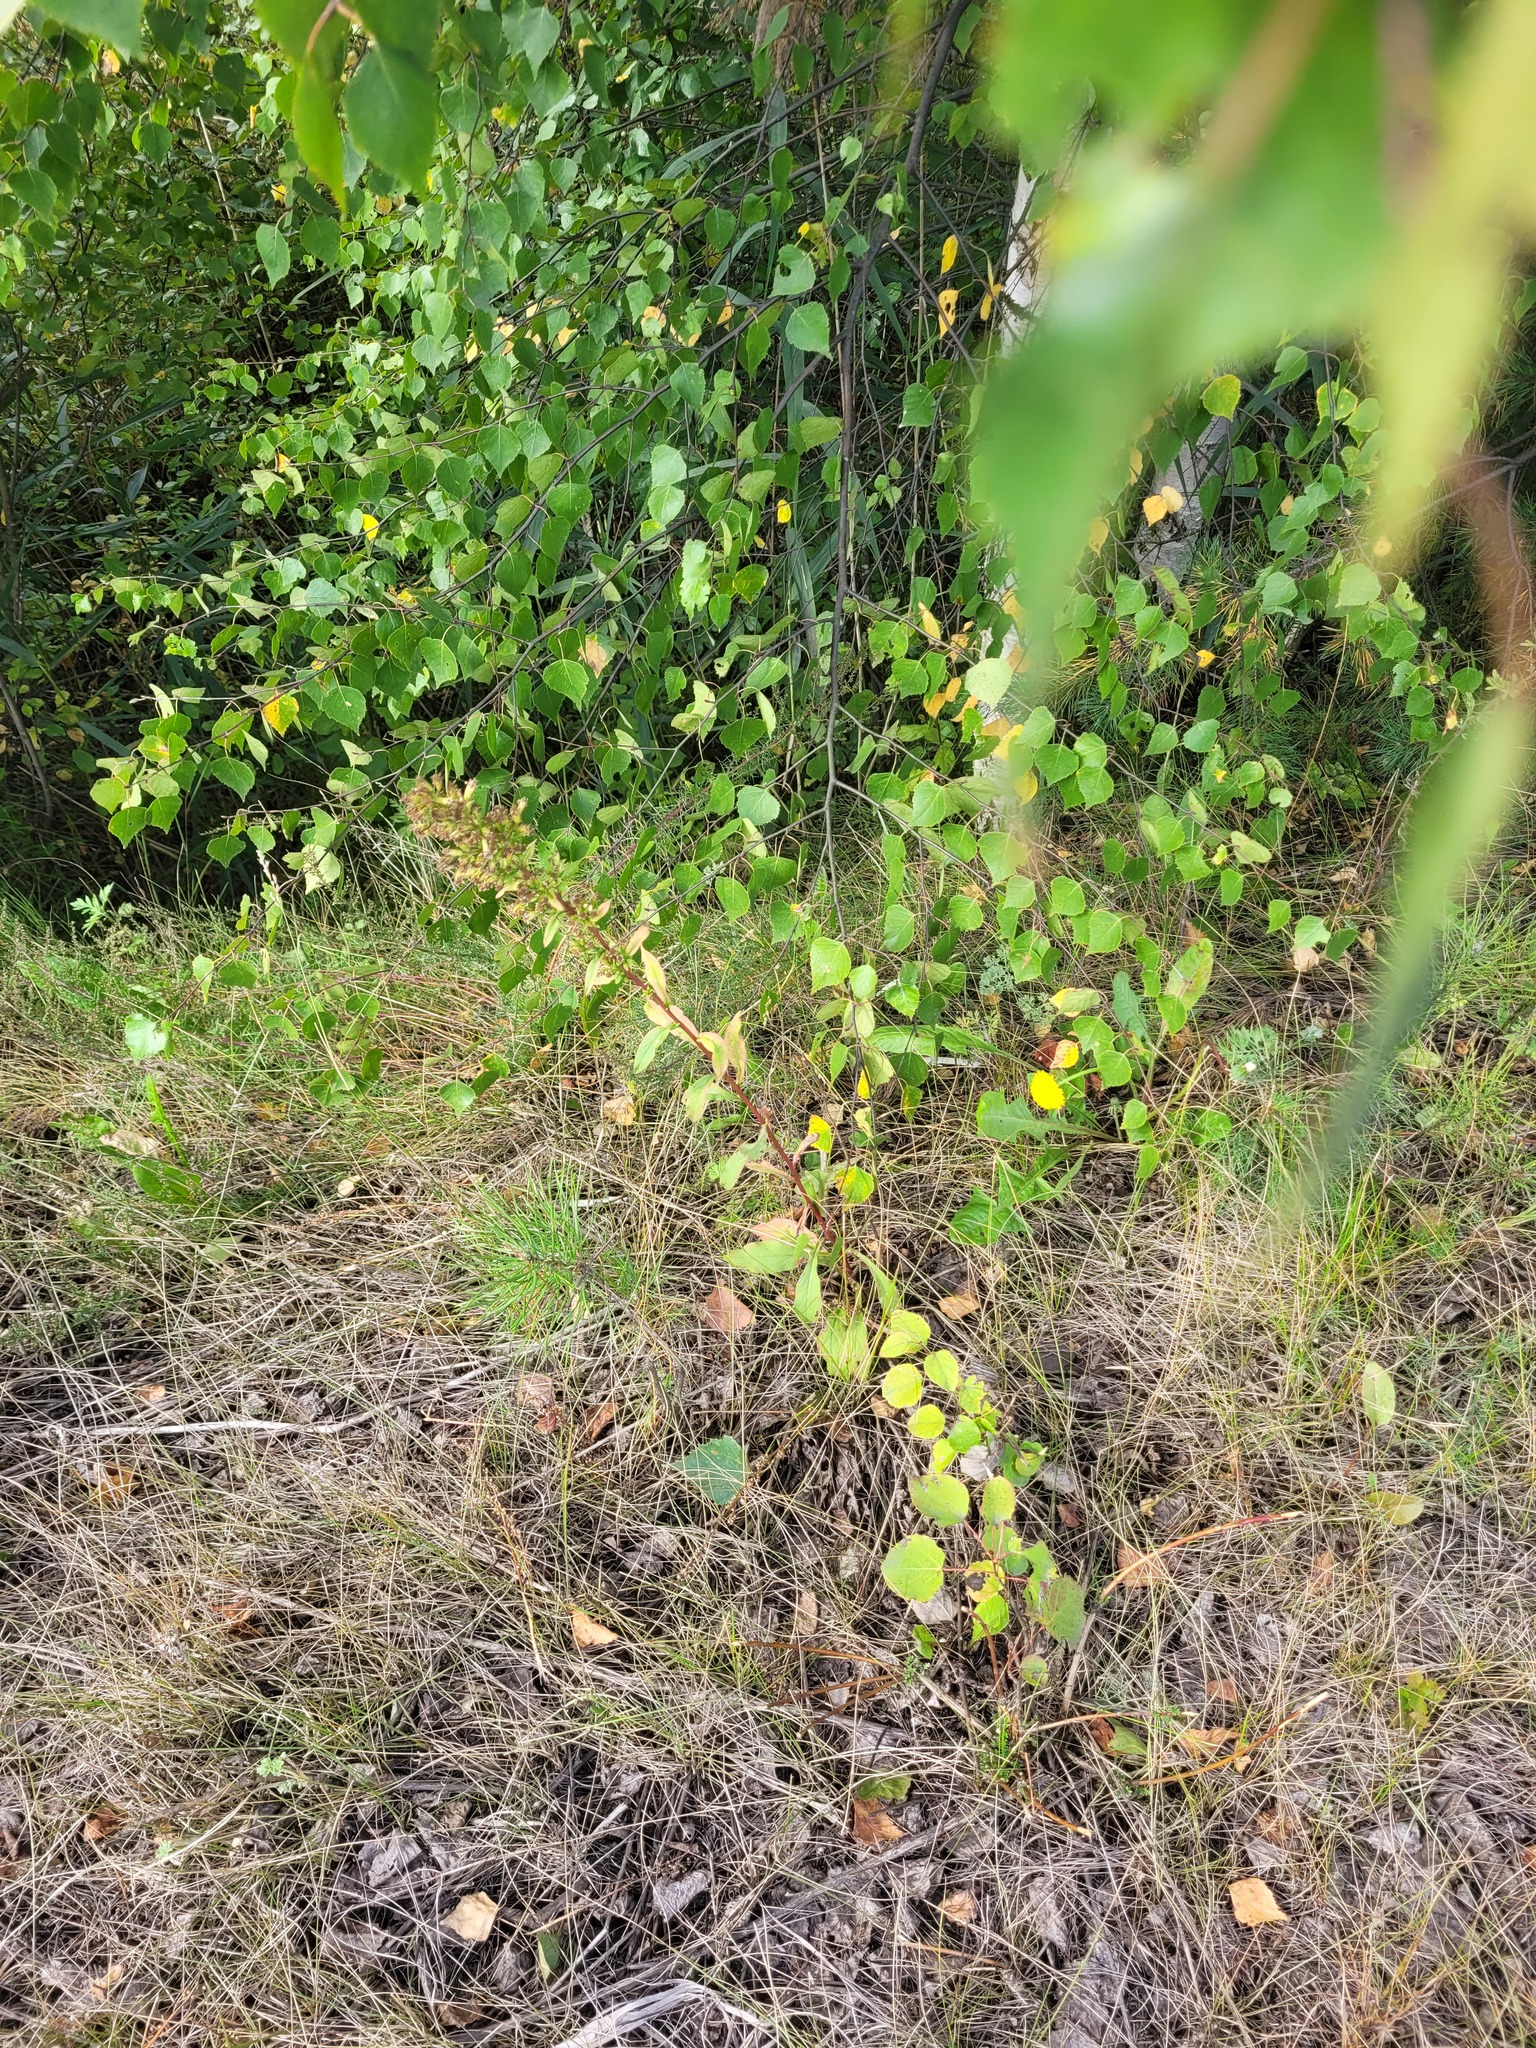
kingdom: Plantae
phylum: Tracheophyta
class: Magnoliopsida
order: Asterales
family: Asteraceae
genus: Solidago
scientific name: Solidago virgaurea
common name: Goldenrod
